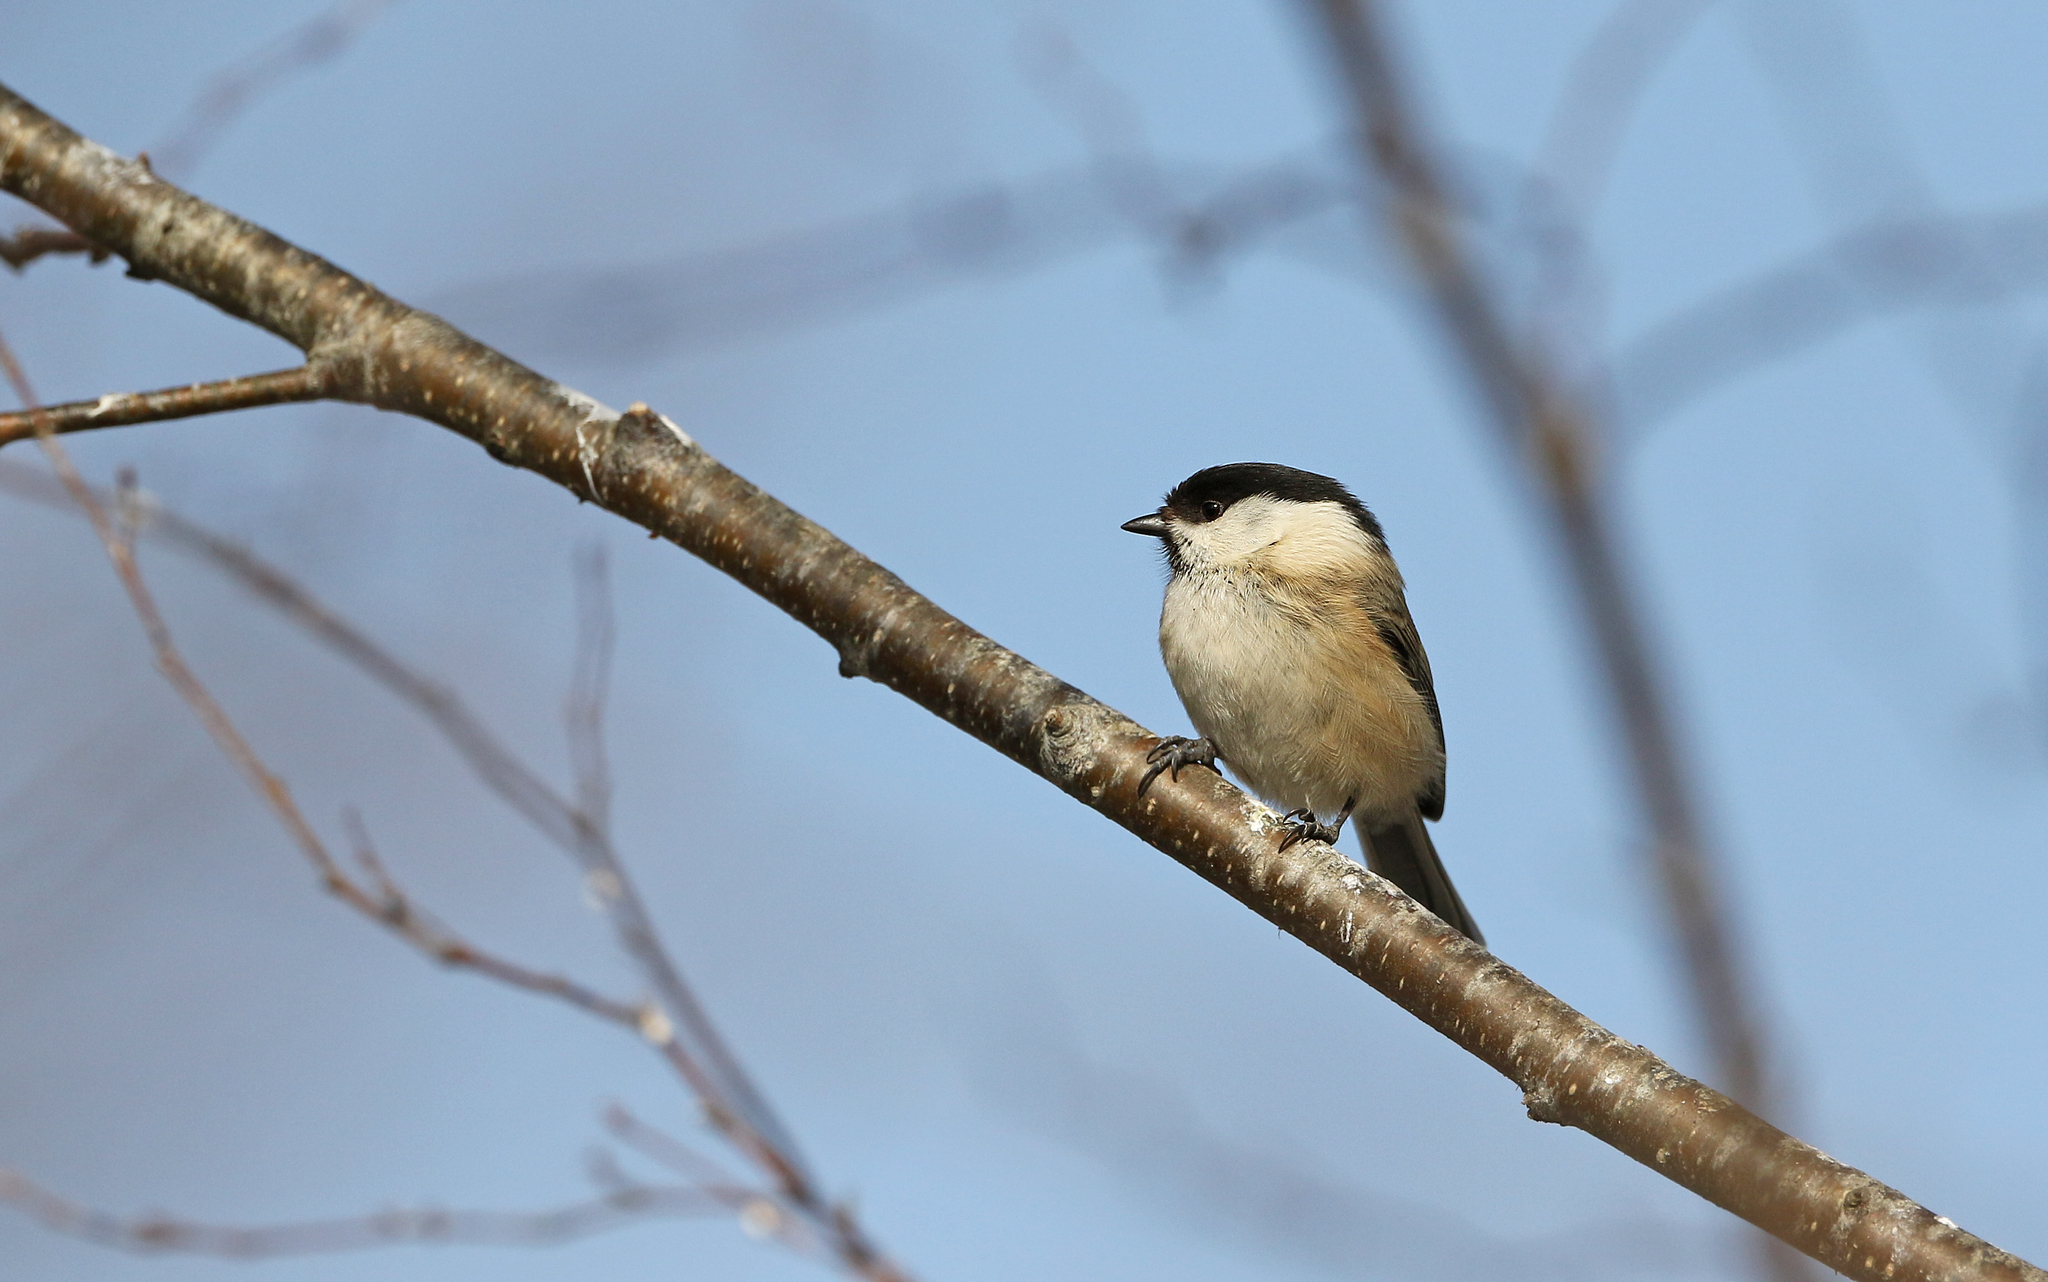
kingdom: Animalia
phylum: Chordata
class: Aves
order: Passeriformes
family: Paridae
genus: Poecile
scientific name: Poecile montanus
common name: Willow tit
